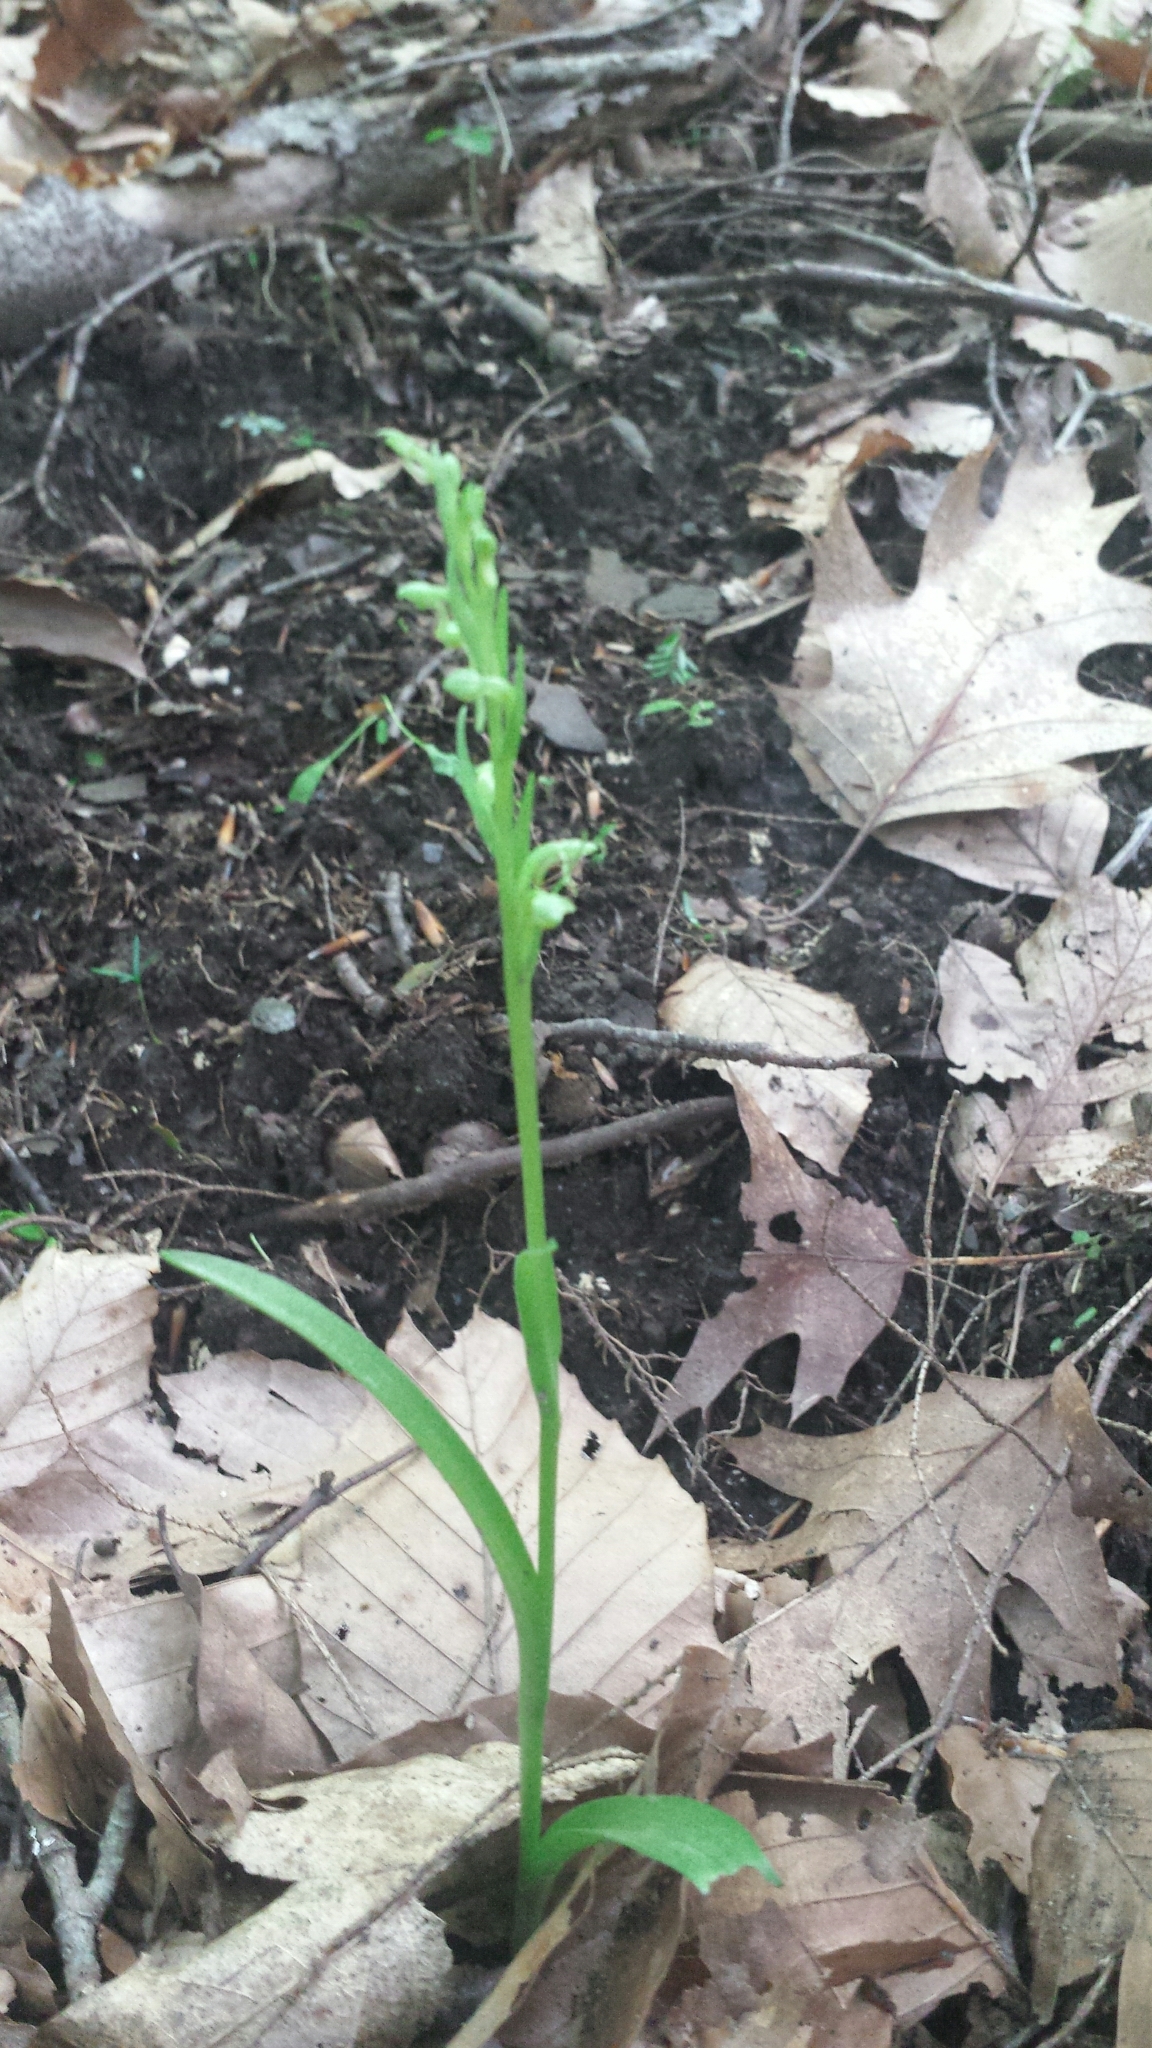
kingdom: Plantae
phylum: Tracheophyta
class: Liliopsida
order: Asparagales
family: Orchidaceae
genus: Platanthera
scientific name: Platanthera aquilonis
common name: Northern green orchid
